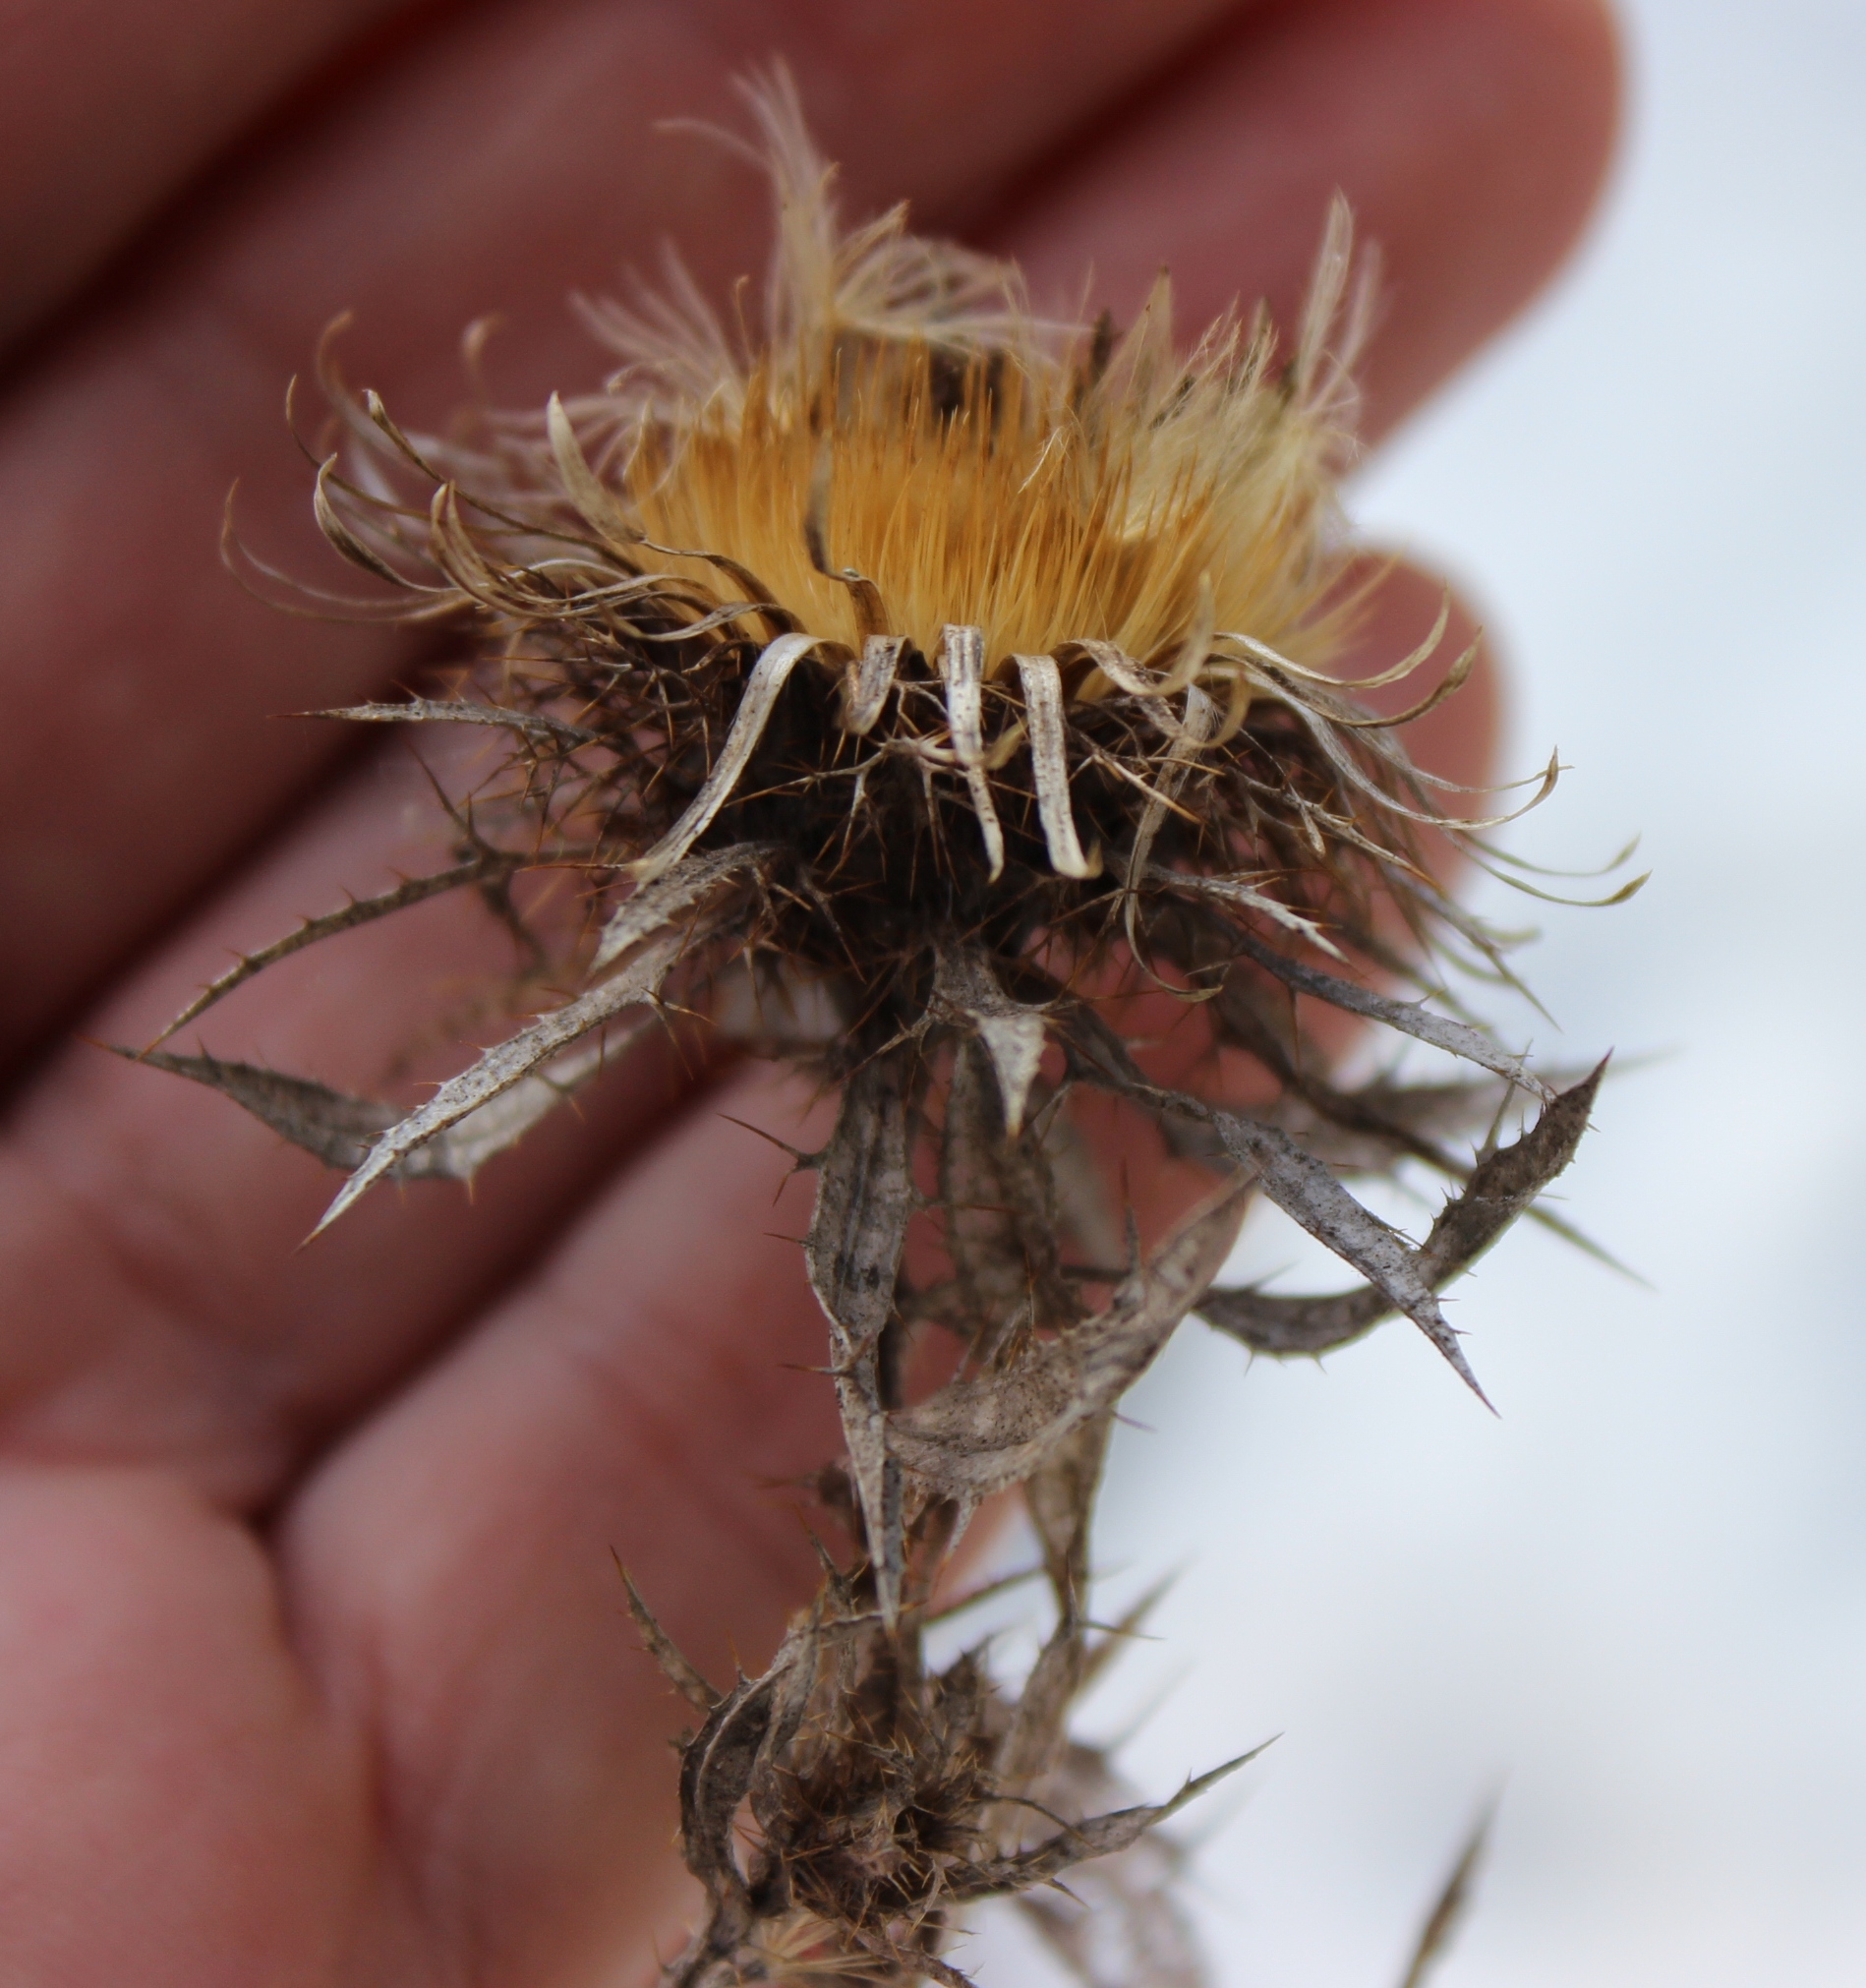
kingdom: Plantae
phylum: Tracheophyta
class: Magnoliopsida
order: Asterales
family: Asteraceae
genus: Carlina
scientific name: Carlina biebersteinii
